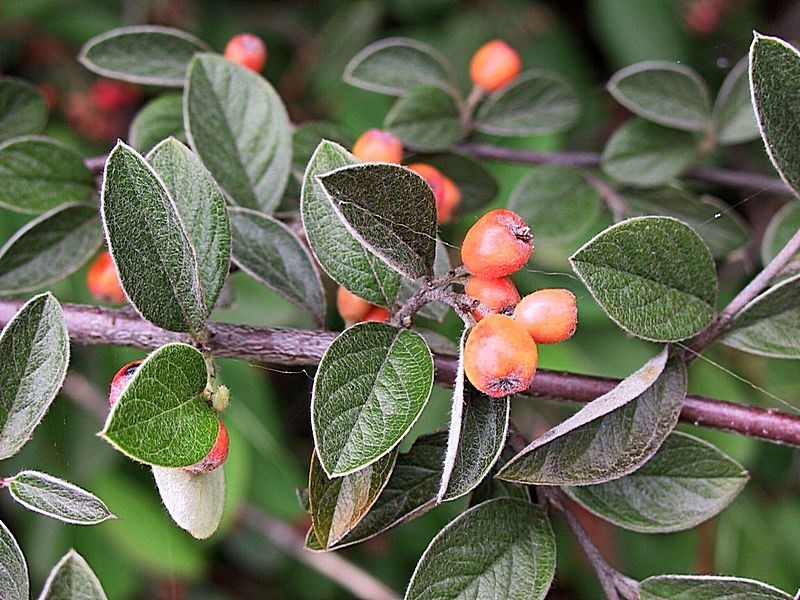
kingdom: Plantae
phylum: Tracheophyta
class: Magnoliopsida
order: Rosales
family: Rosaceae
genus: Cotoneaster
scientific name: Cotoneaster franchetii
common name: Franchet's cotoneaster
